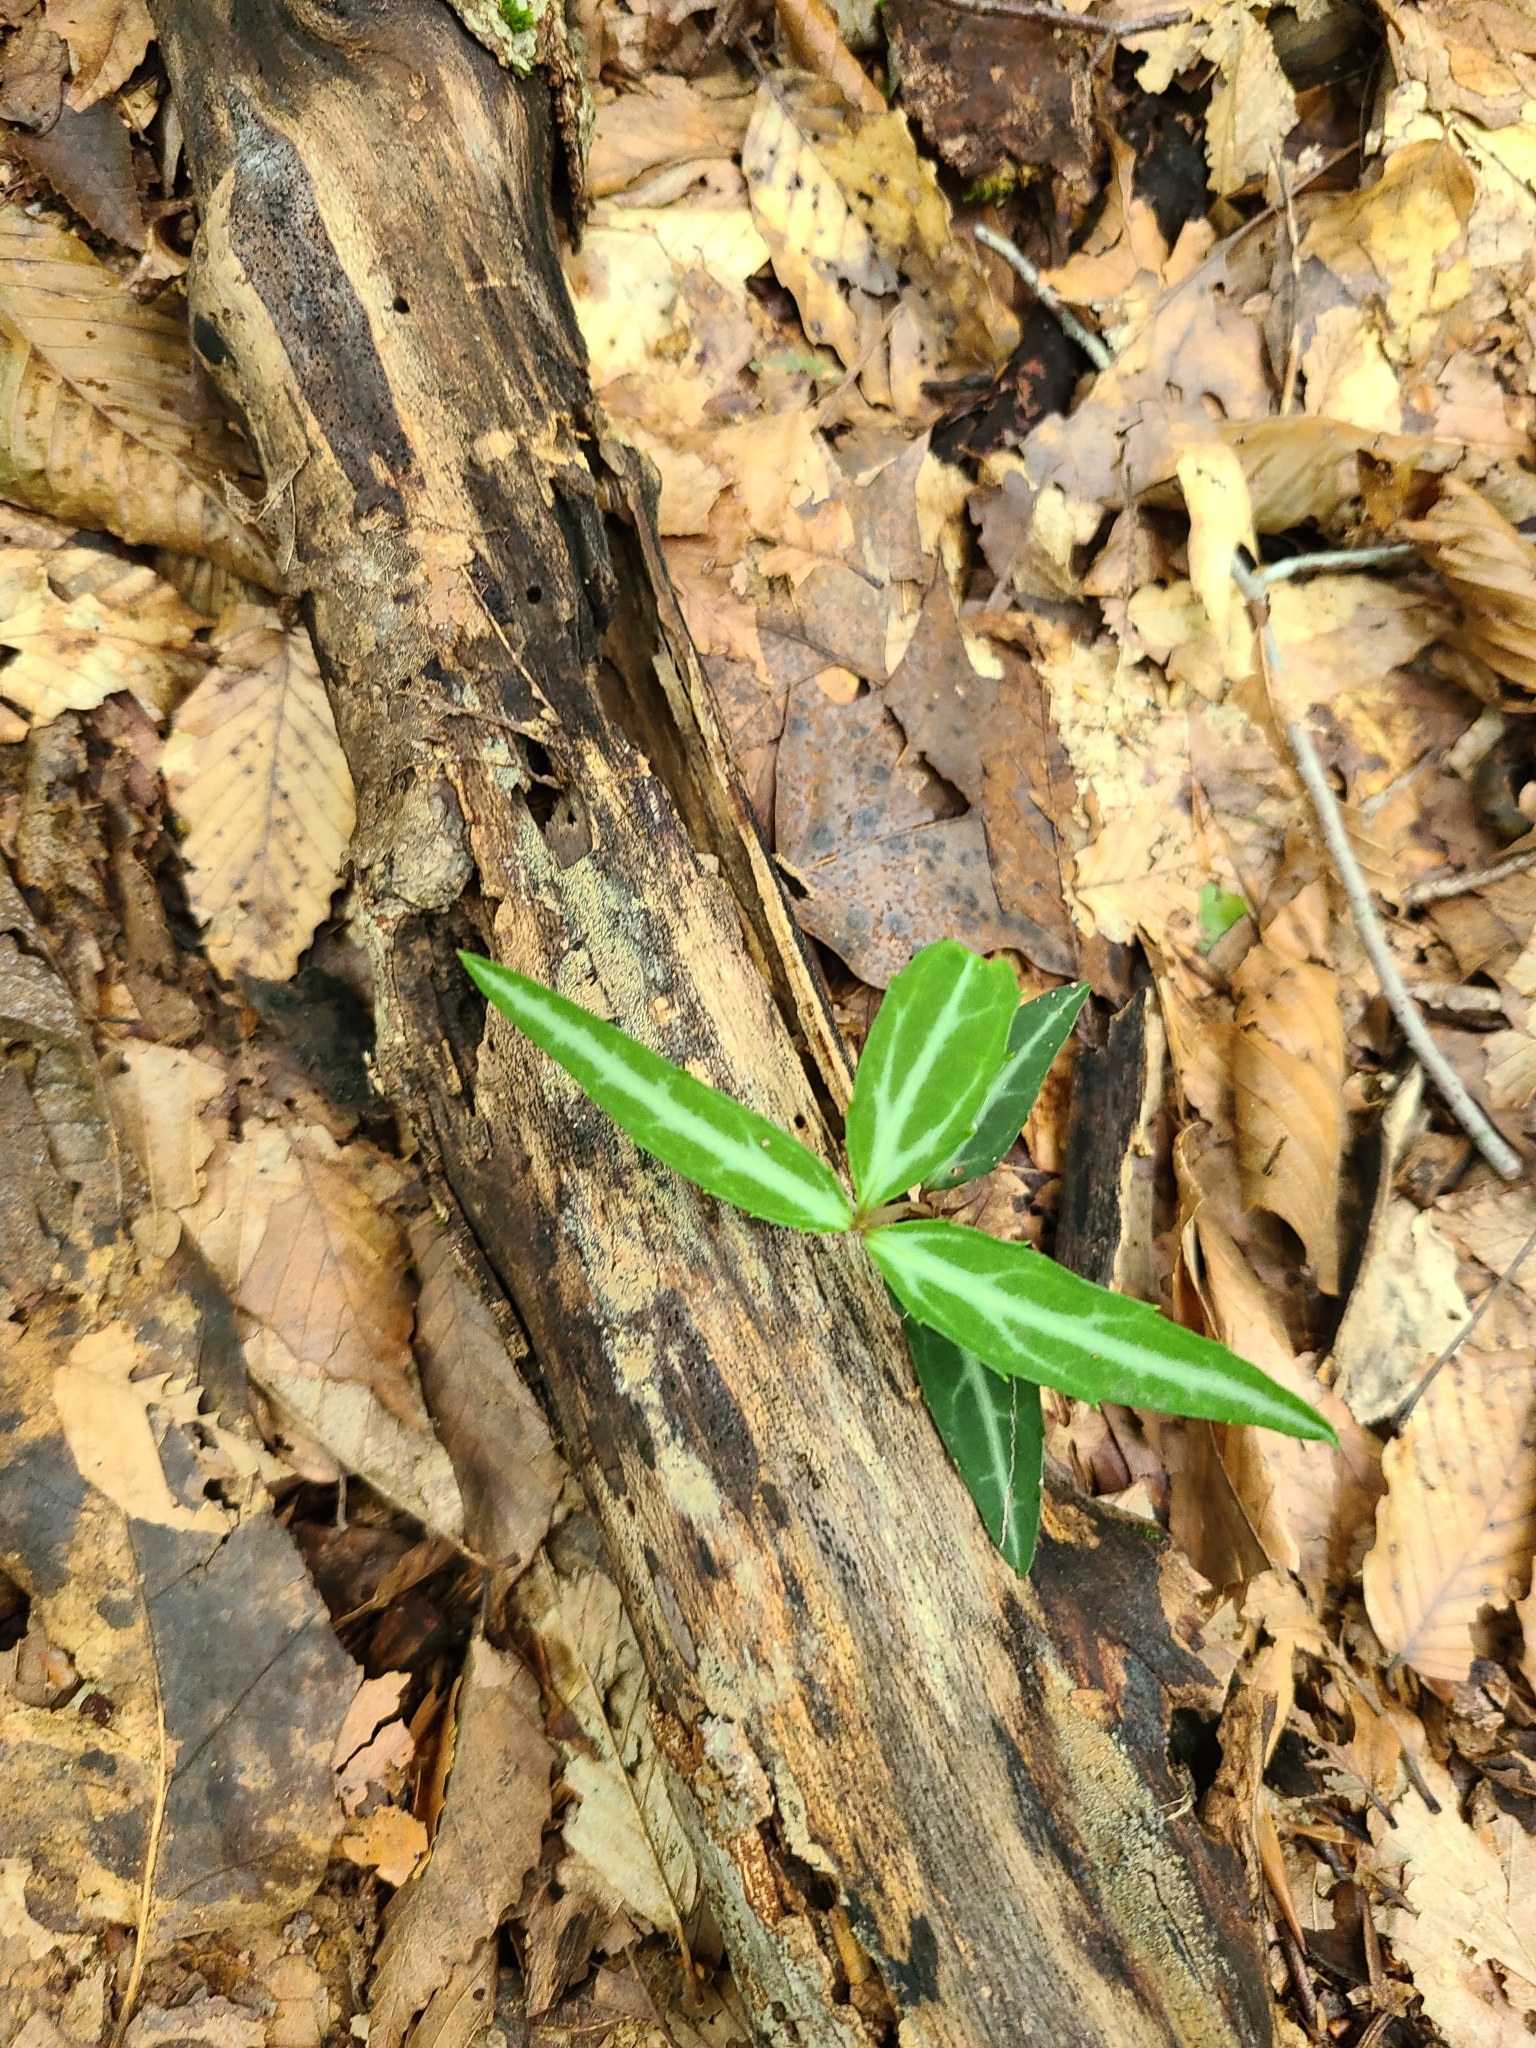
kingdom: Plantae
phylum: Tracheophyta
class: Magnoliopsida
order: Ericales
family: Ericaceae
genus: Chimaphila
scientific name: Chimaphila maculata
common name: Spotted pipsissewa
